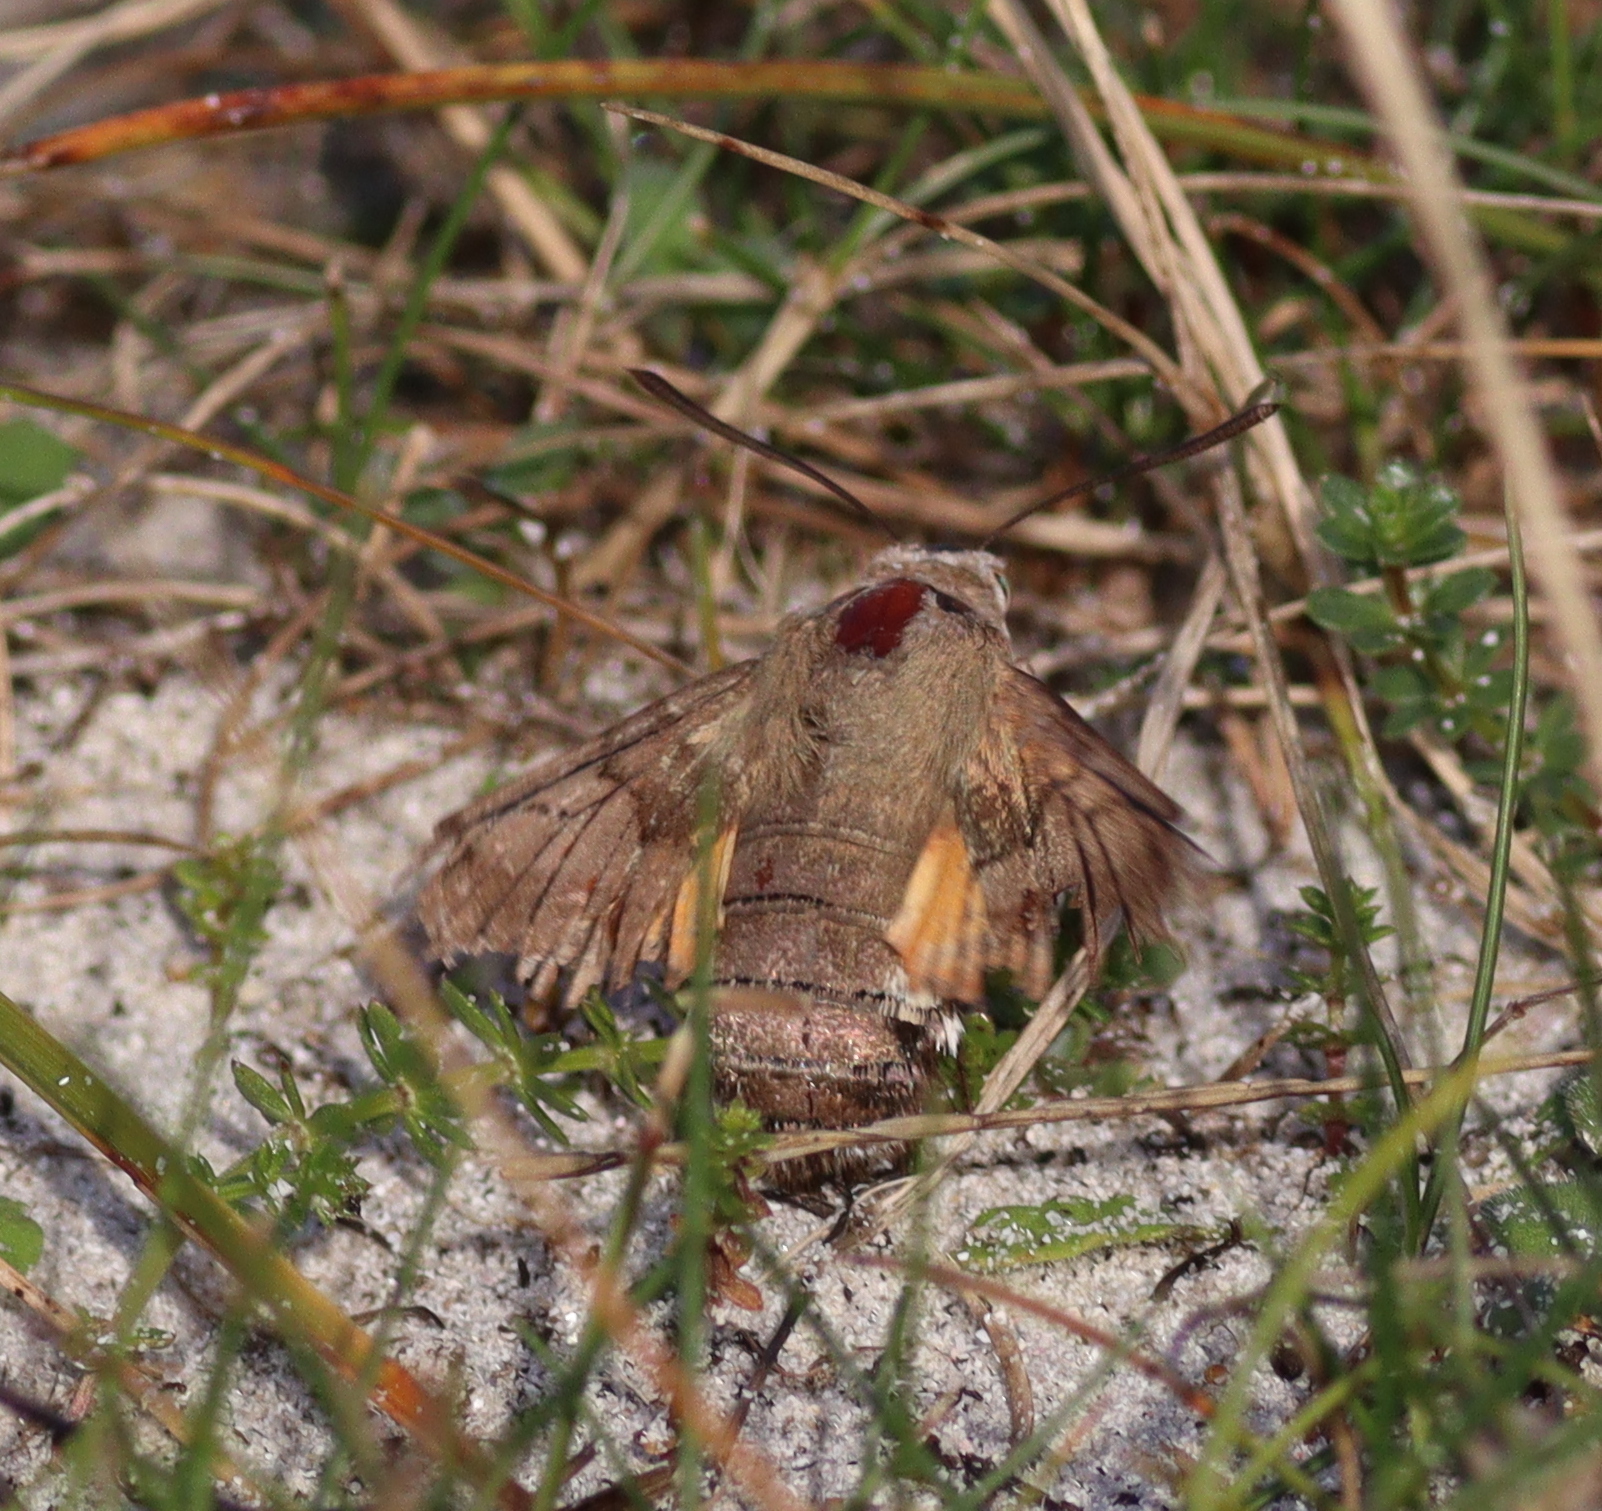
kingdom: Animalia
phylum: Arthropoda
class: Insecta
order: Lepidoptera
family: Sphingidae
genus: Macroglossum
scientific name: Macroglossum stellatarum
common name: Humming-bird hawk-moth
